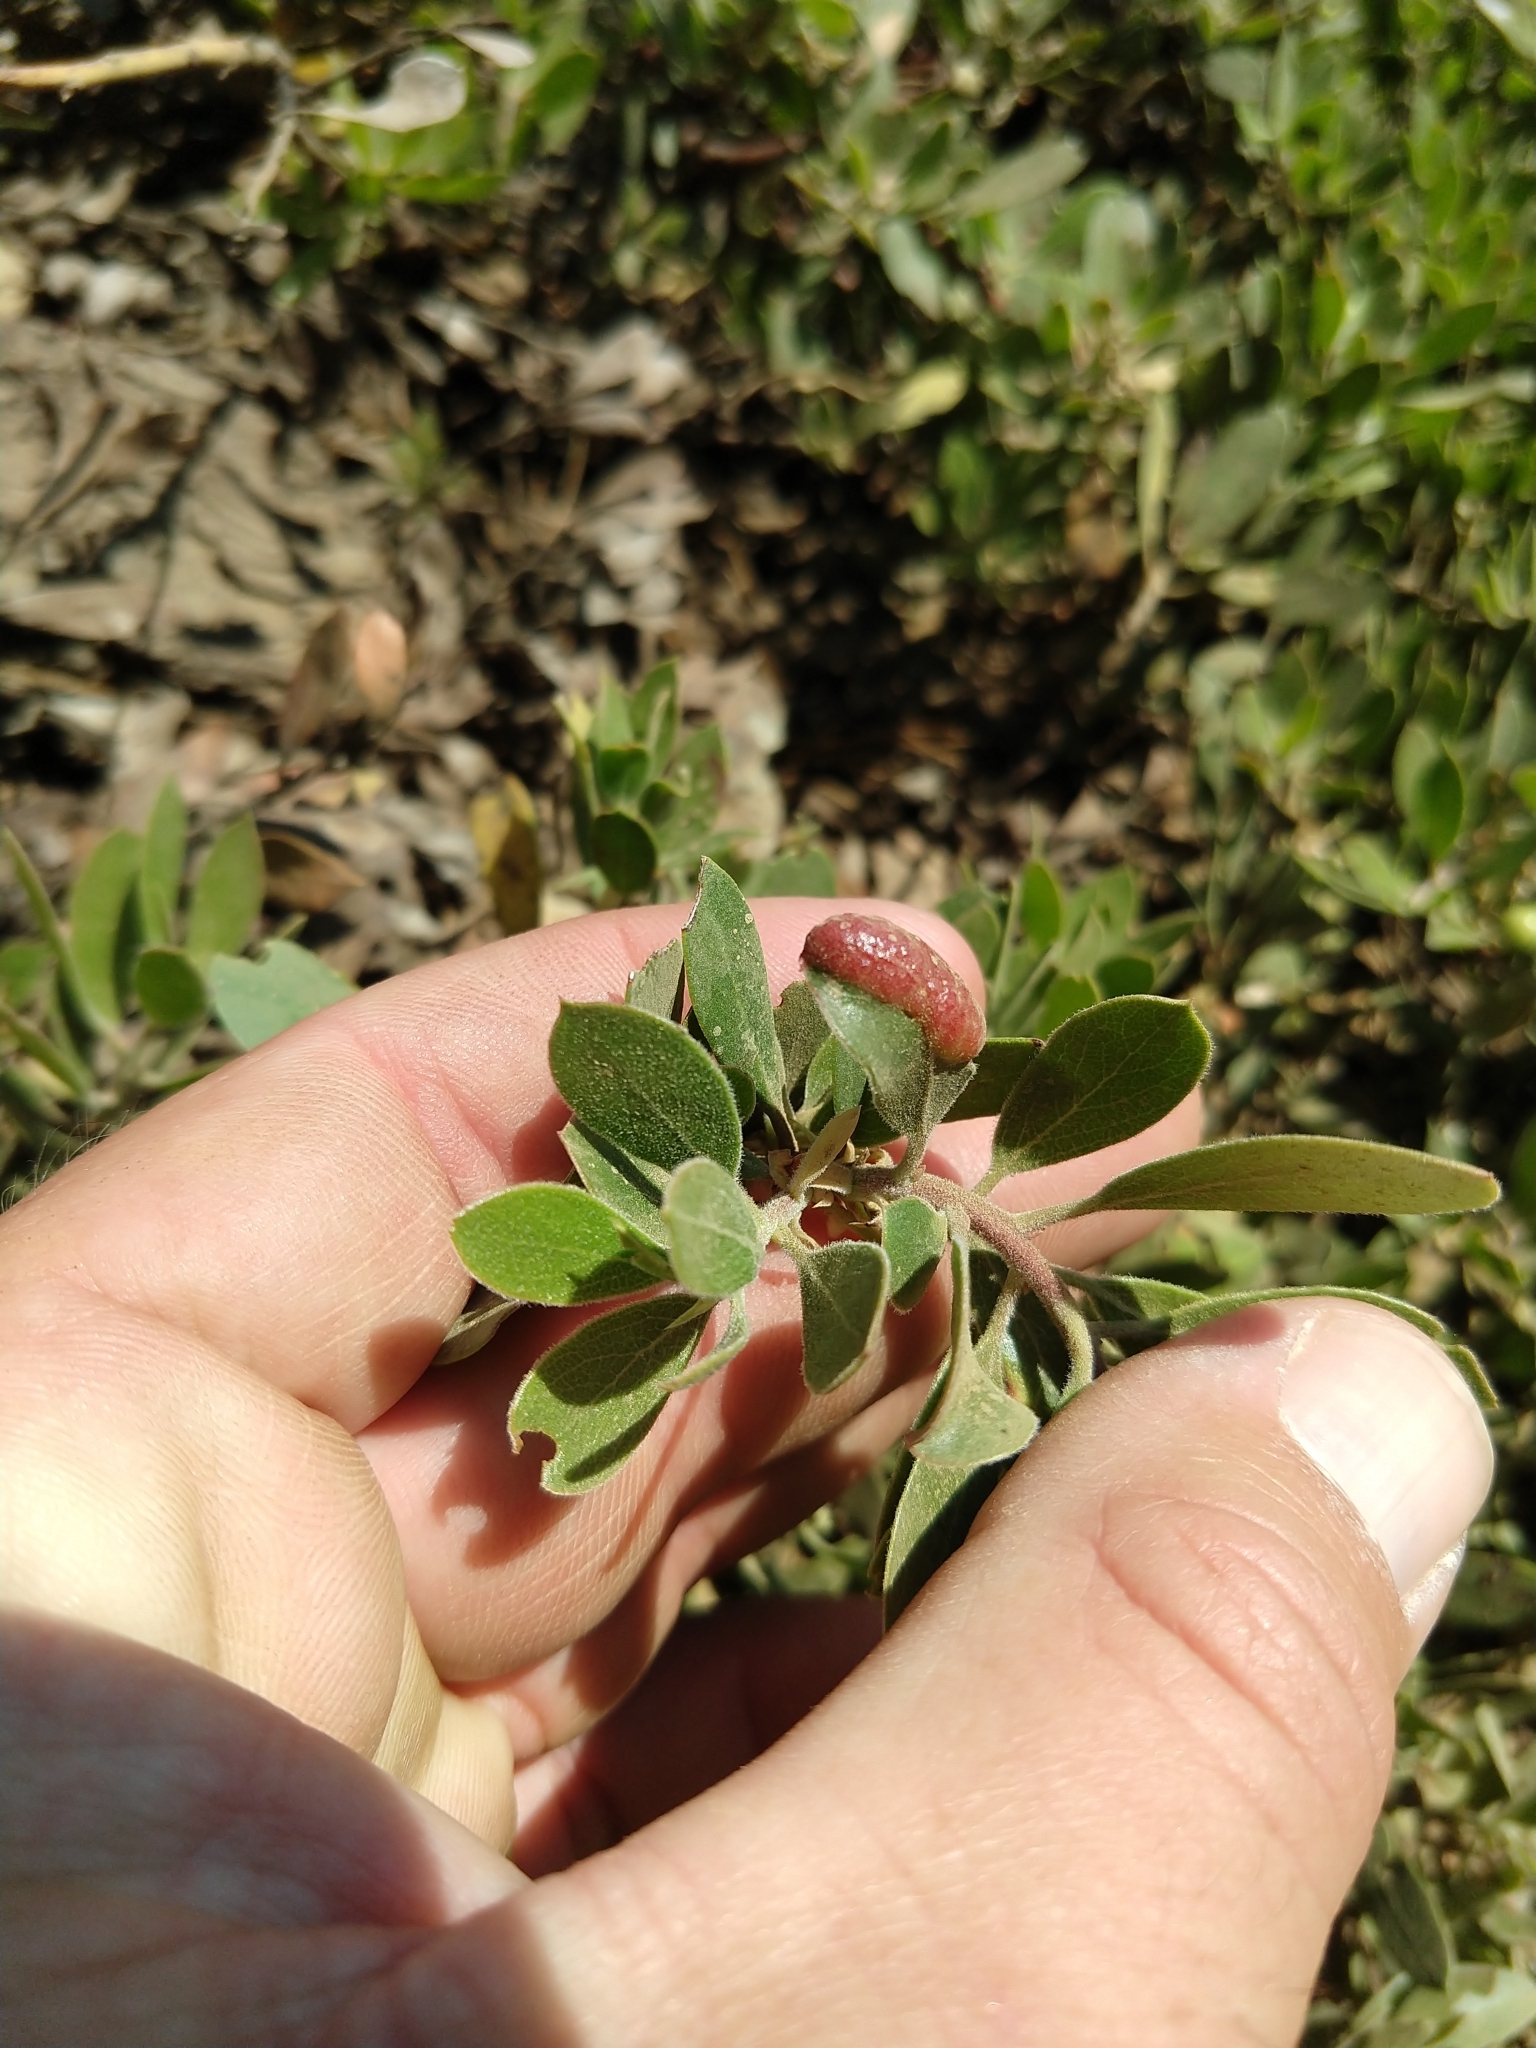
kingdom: Animalia
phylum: Arthropoda
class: Insecta
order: Hemiptera
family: Aphididae
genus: Tamalia
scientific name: Tamalia coweni
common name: Manzanita leafgall aphid
